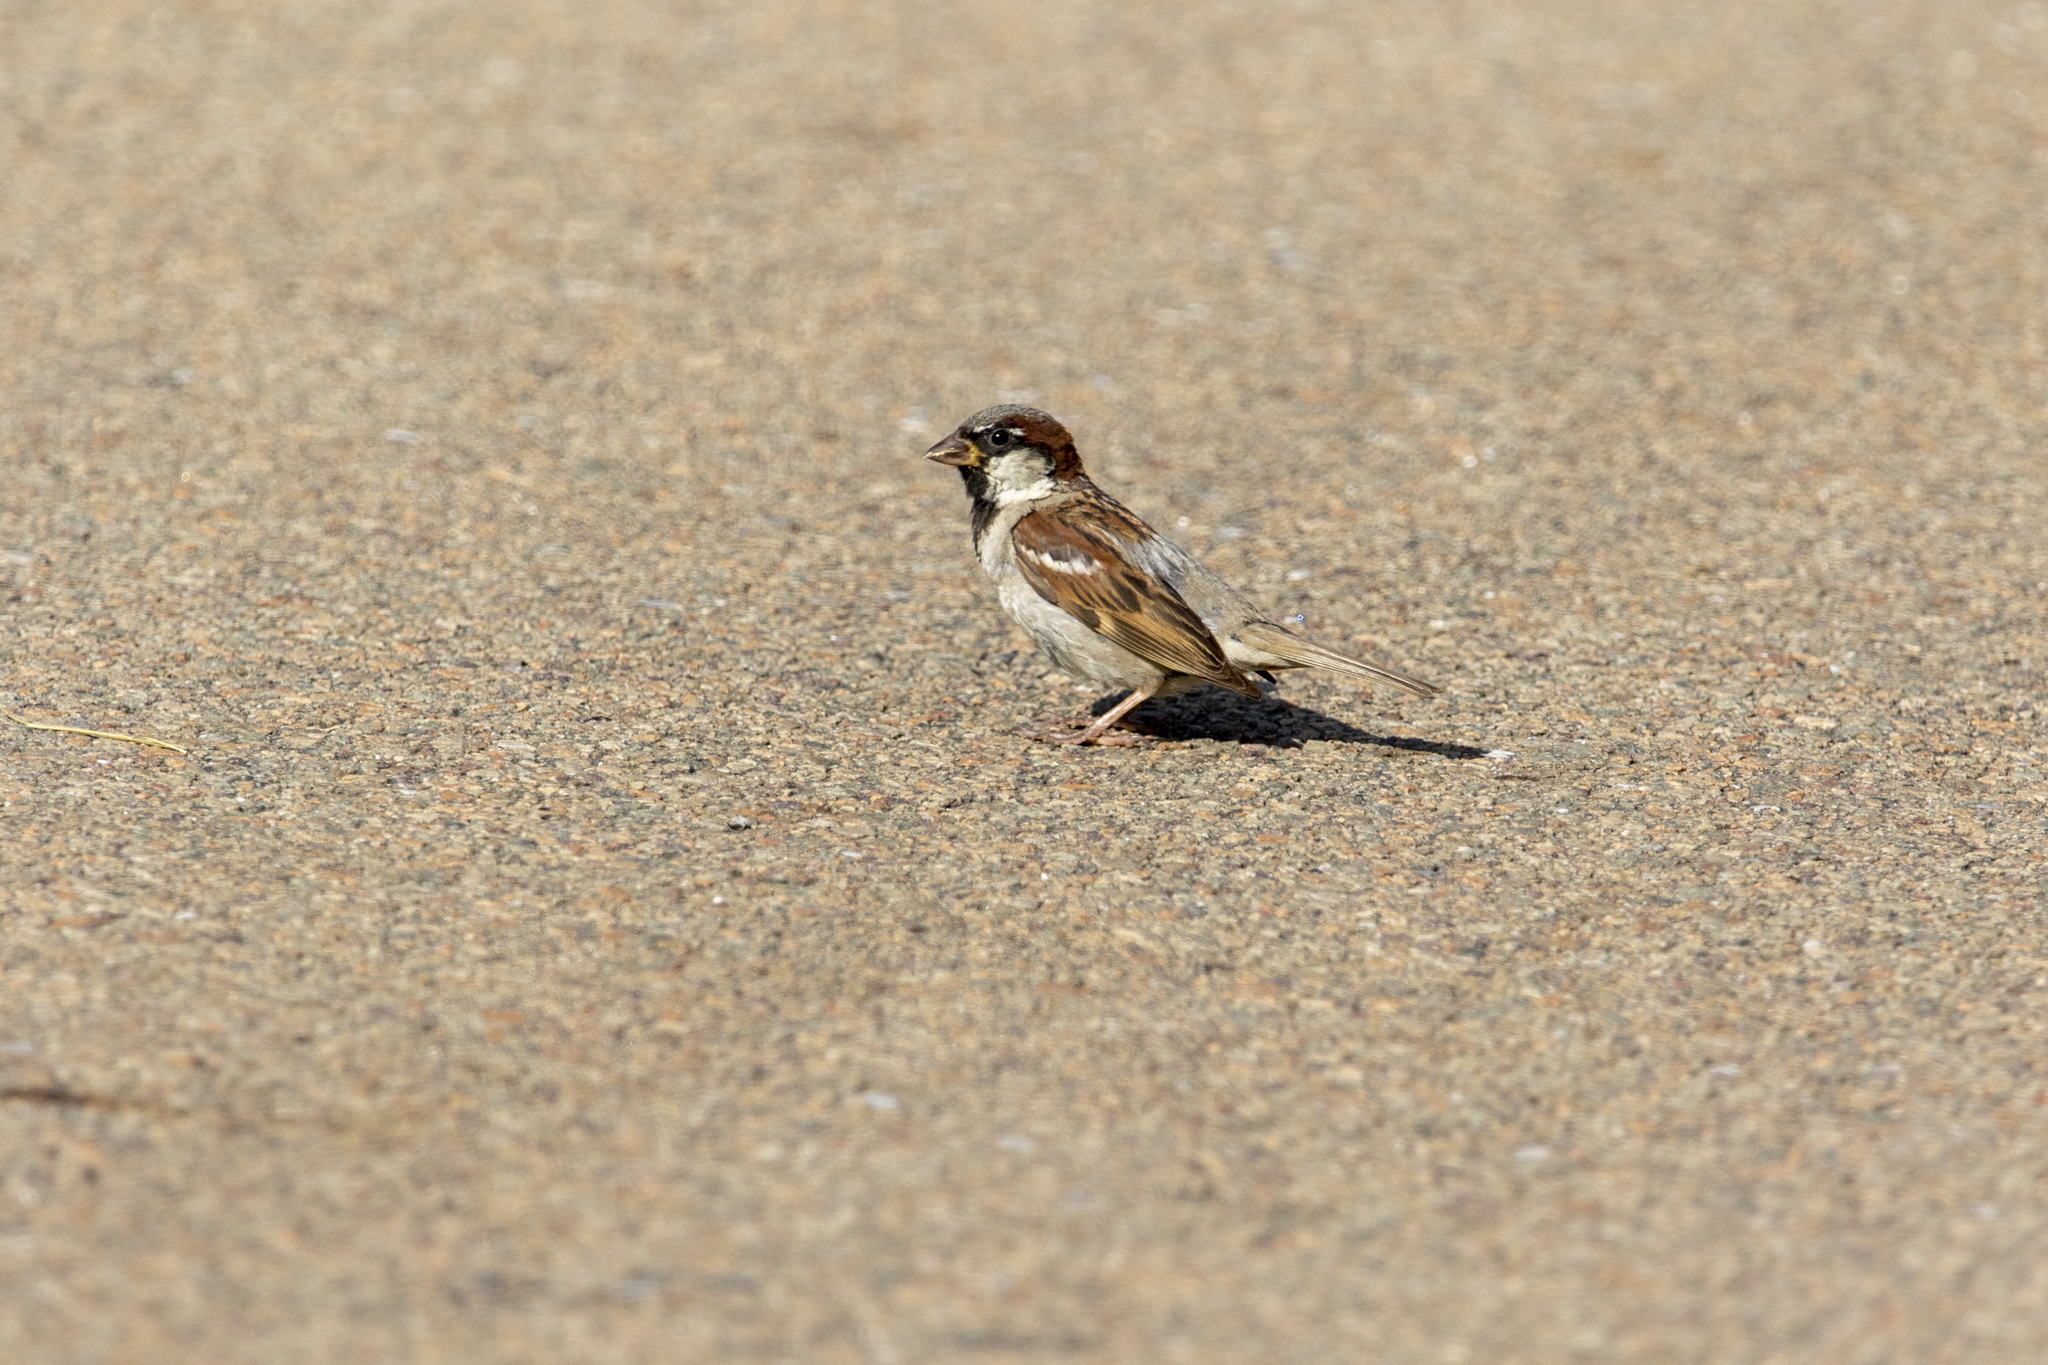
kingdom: Animalia
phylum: Chordata
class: Aves
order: Passeriformes
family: Passeridae
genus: Passer
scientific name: Passer domesticus
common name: House sparrow
